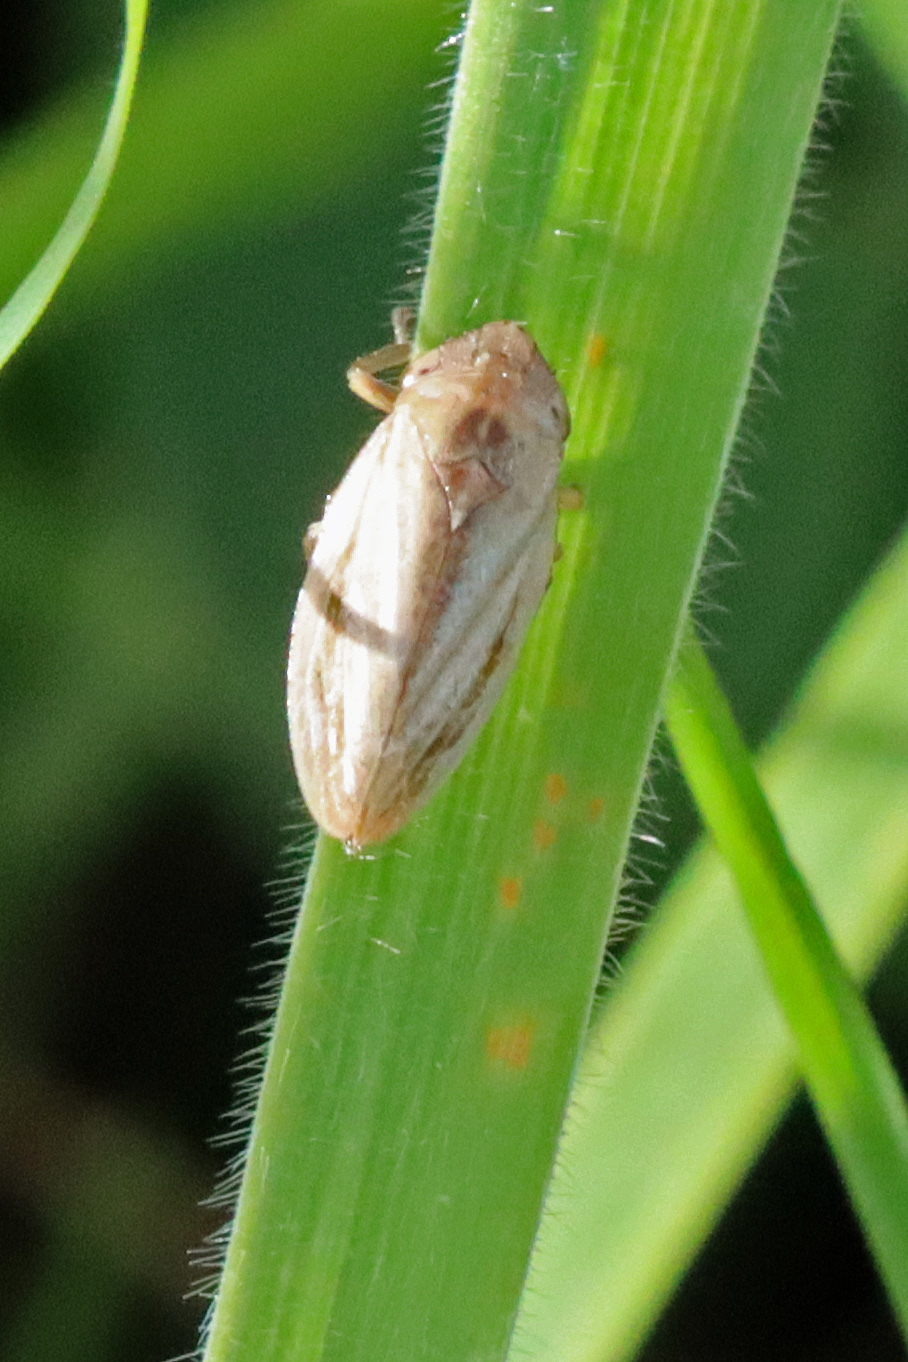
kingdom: Animalia
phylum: Arthropoda
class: Insecta
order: Hemiptera
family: Aphrophoridae
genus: Philaenus
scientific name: Philaenus spumarius
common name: Meadow spittlebug
